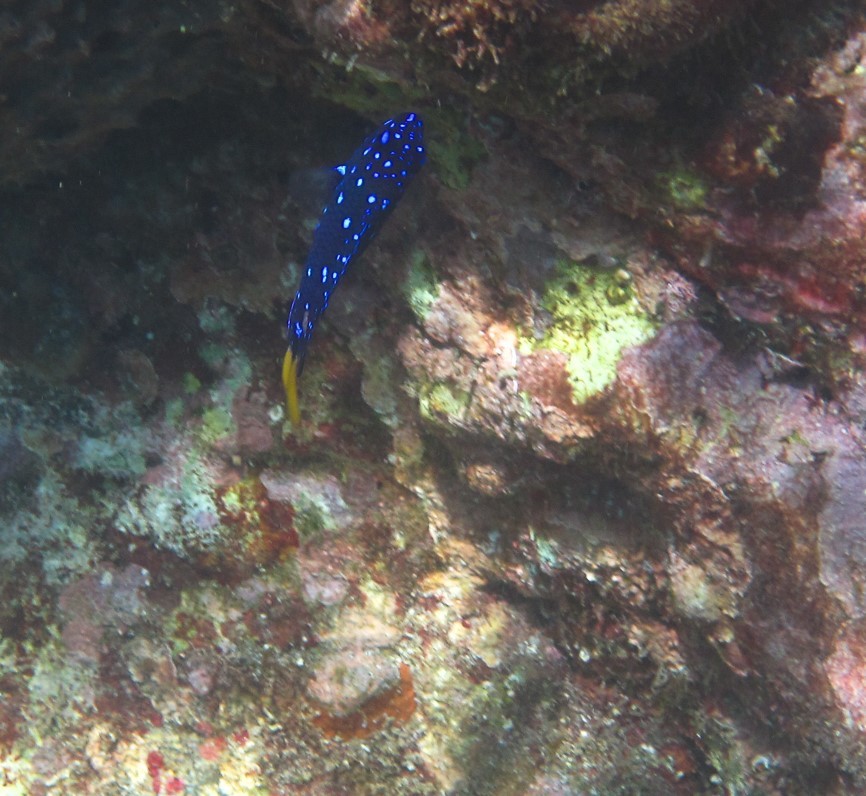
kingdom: Animalia
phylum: Chordata
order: Perciformes
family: Pomacentridae
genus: Microspathodon
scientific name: Microspathodon chrysurus
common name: Yellowtail damselfish
